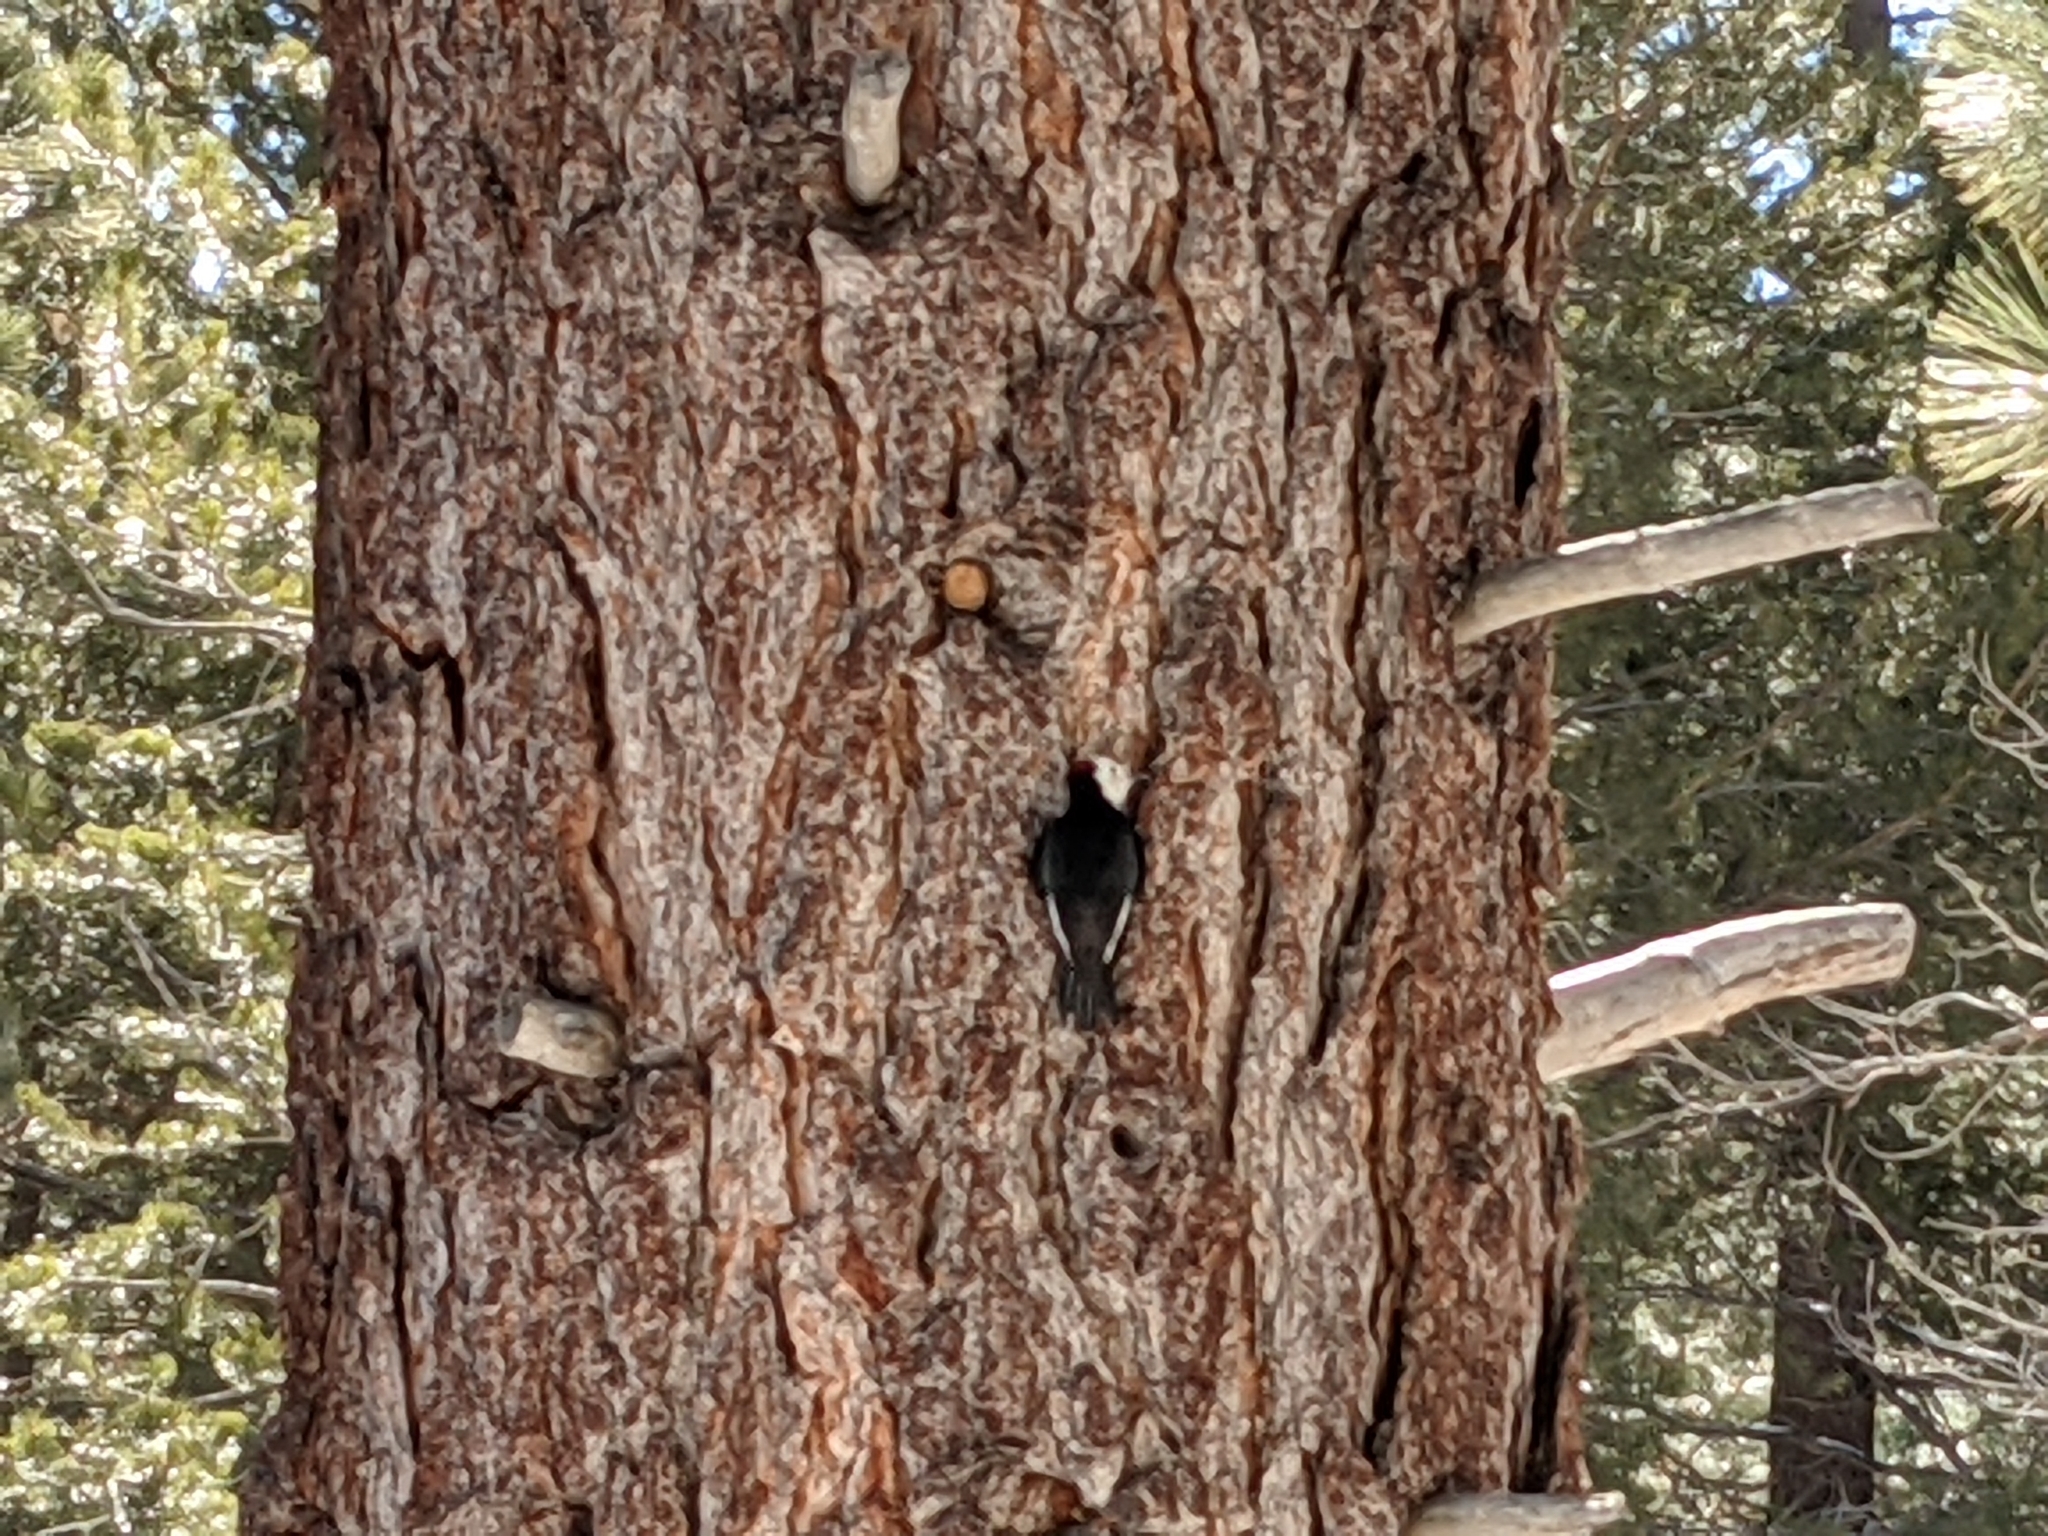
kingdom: Animalia
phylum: Chordata
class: Aves
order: Piciformes
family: Picidae
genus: Leuconotopicus
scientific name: Leuconotopicus albolarvatus
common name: White-headed woodpecker
